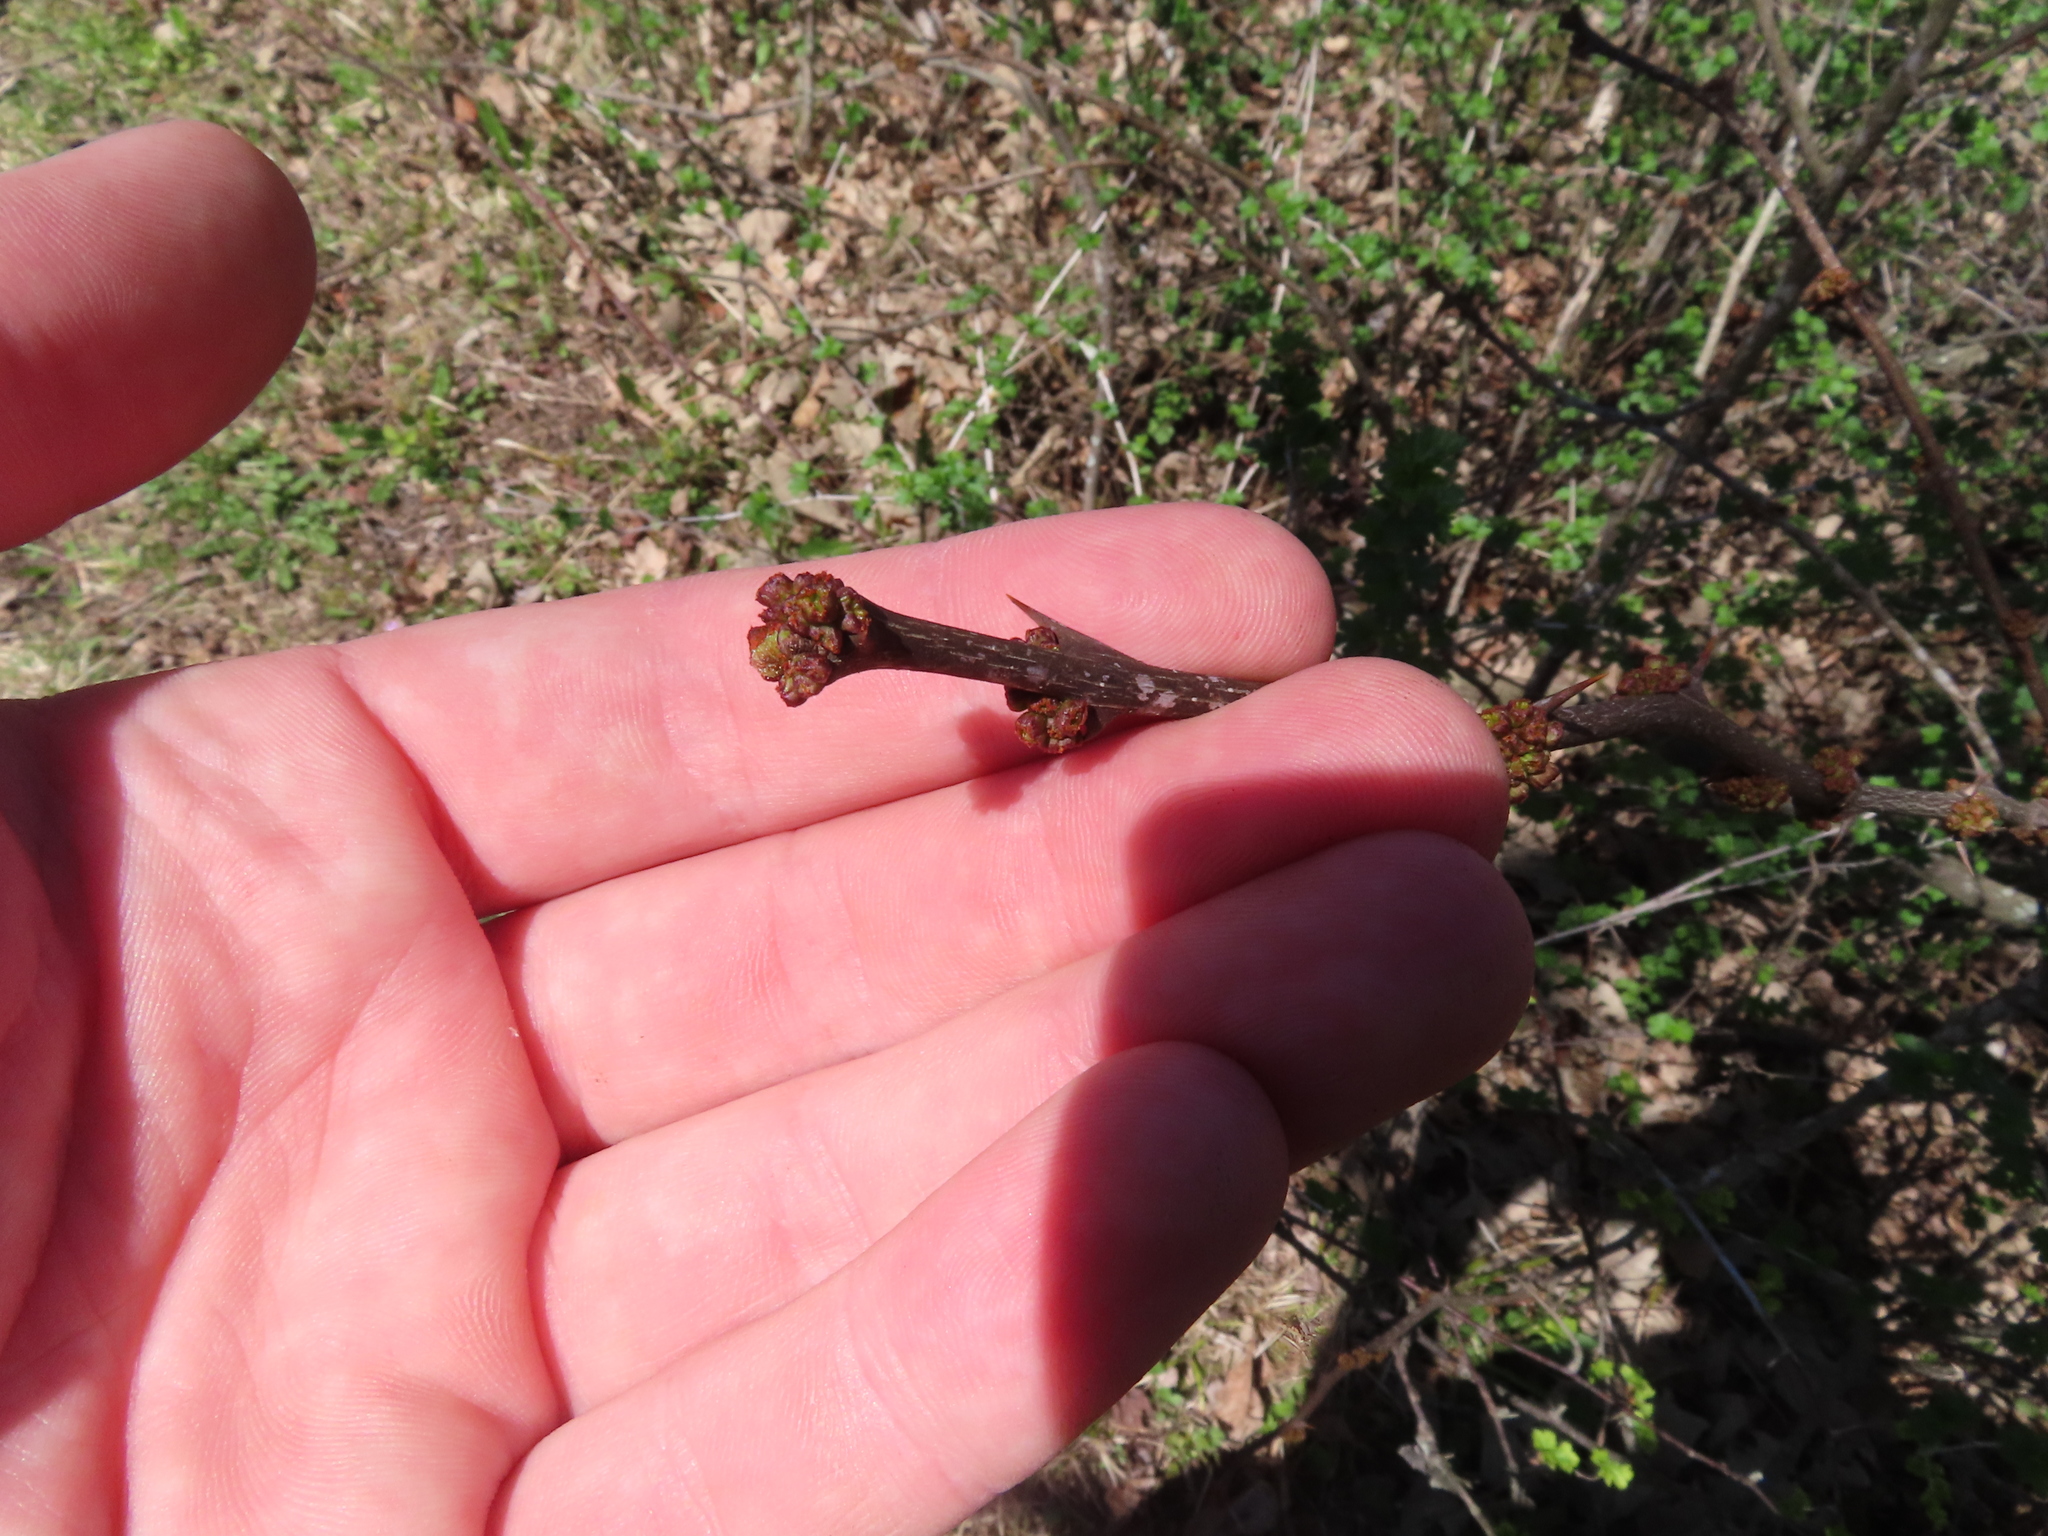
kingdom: Plantae
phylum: Tracheophyta
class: Magnoliopsida
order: Sapindales
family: Rutaceae
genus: Zanthoxylum
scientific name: Zanthoxylum americanum
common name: Northern prickly-ash
